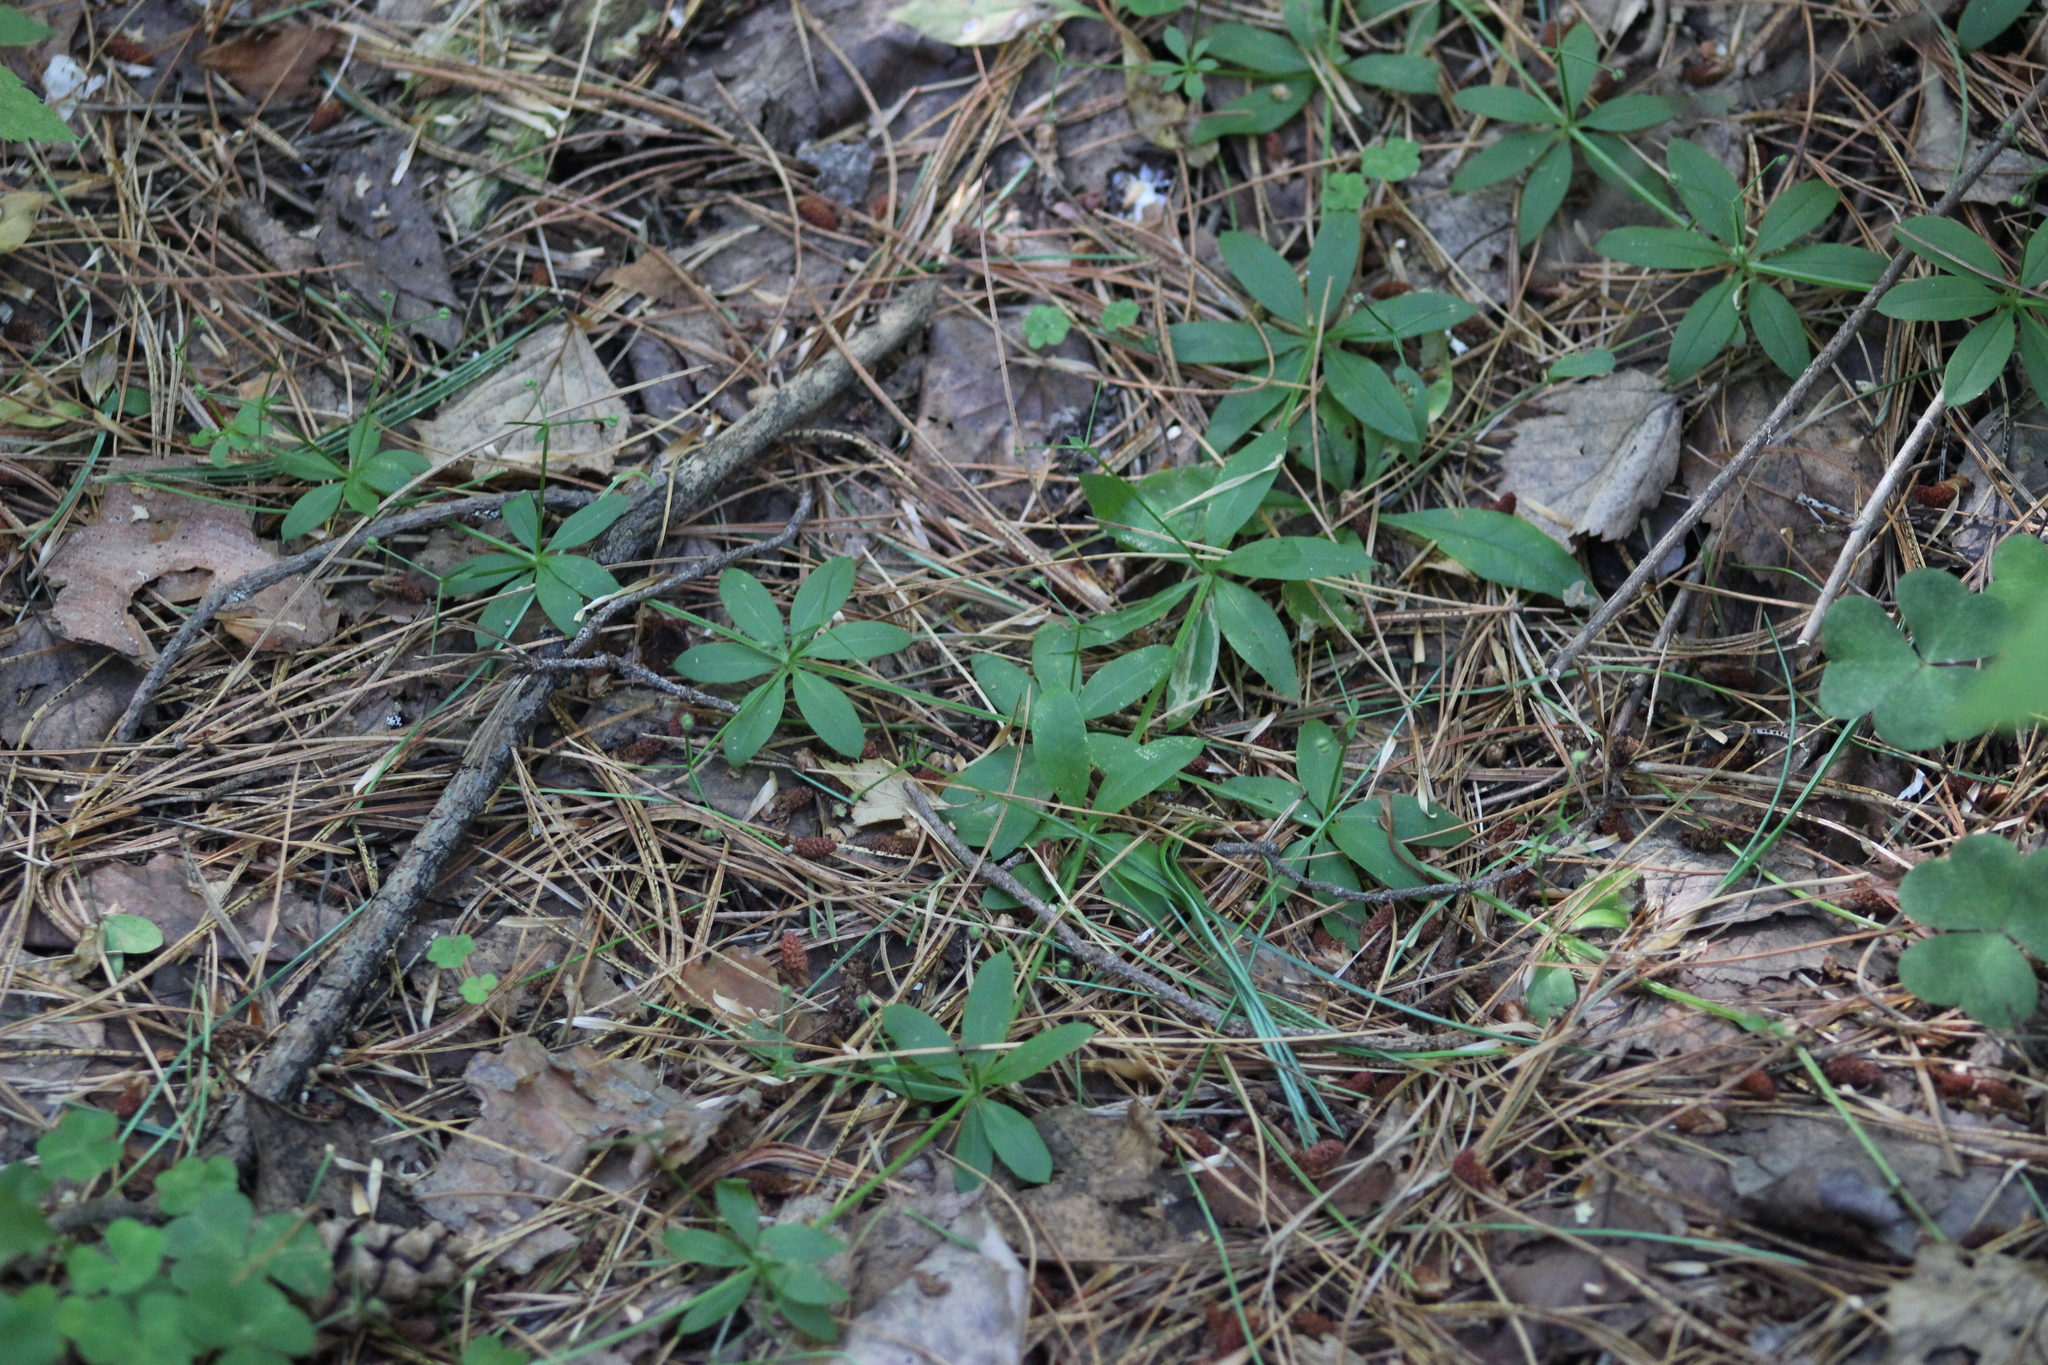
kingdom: Plantae
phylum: Tracheophyta
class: Magnoliopsida
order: Gentianales
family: Rubiaceae
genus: Galium
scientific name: Galium triflorum
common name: Fragrant bedstraw
